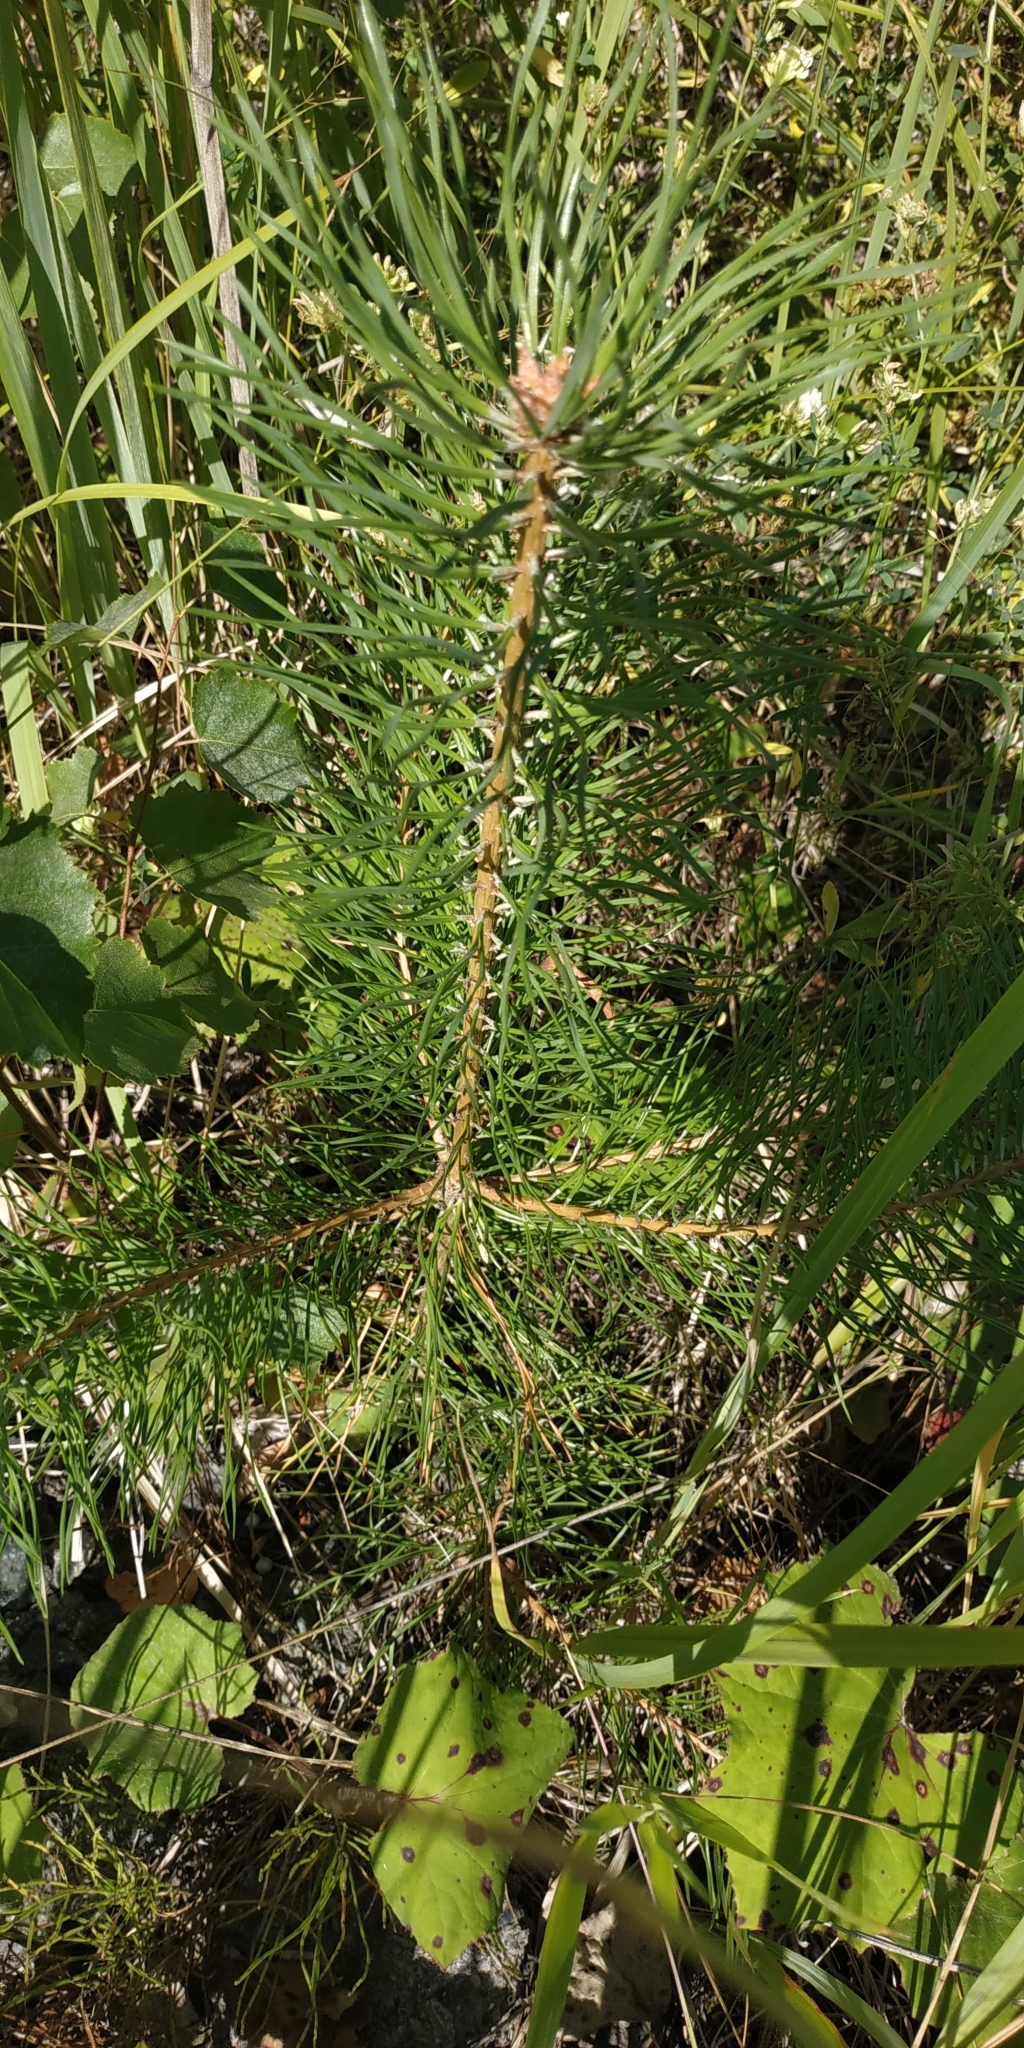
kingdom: Plantae
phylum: Tracheophyta
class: Pinopsida
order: Pinales
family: Pinaceae
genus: Pinus
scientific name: Pinus sylvestris
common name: Scots pine
